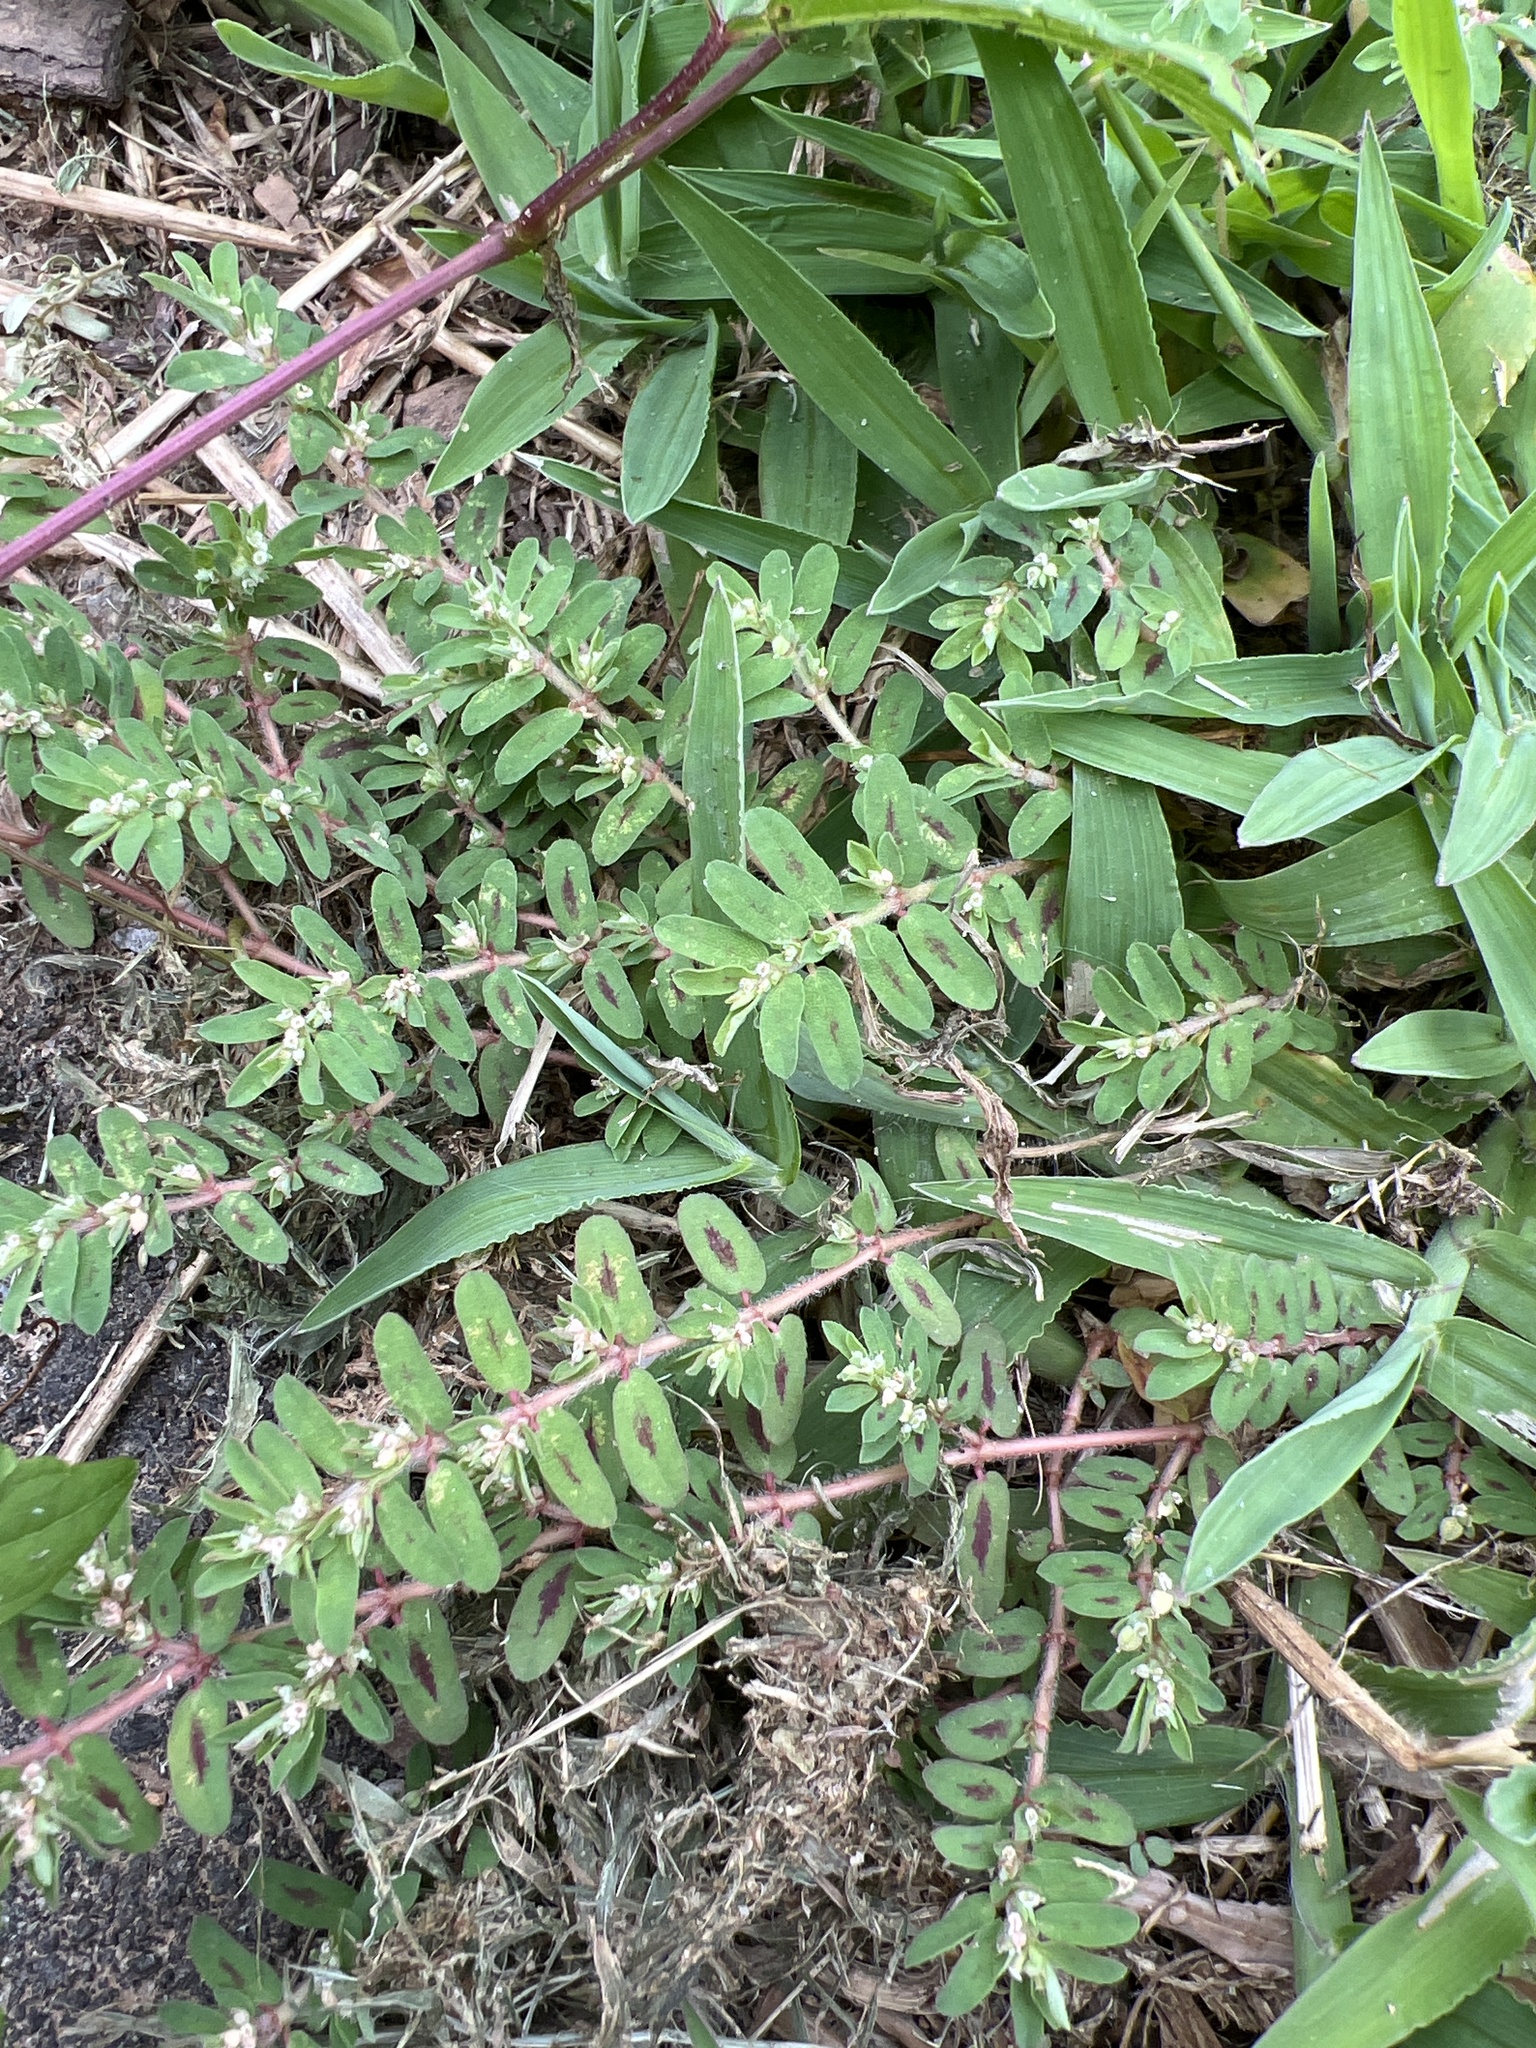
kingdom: Plantae
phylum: Tracheophyta
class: Magnoliopsida
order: Malpighiales
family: Euphorbiaceae
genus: Euphorbia
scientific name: Euphorbia maculata
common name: Spotted spurge
